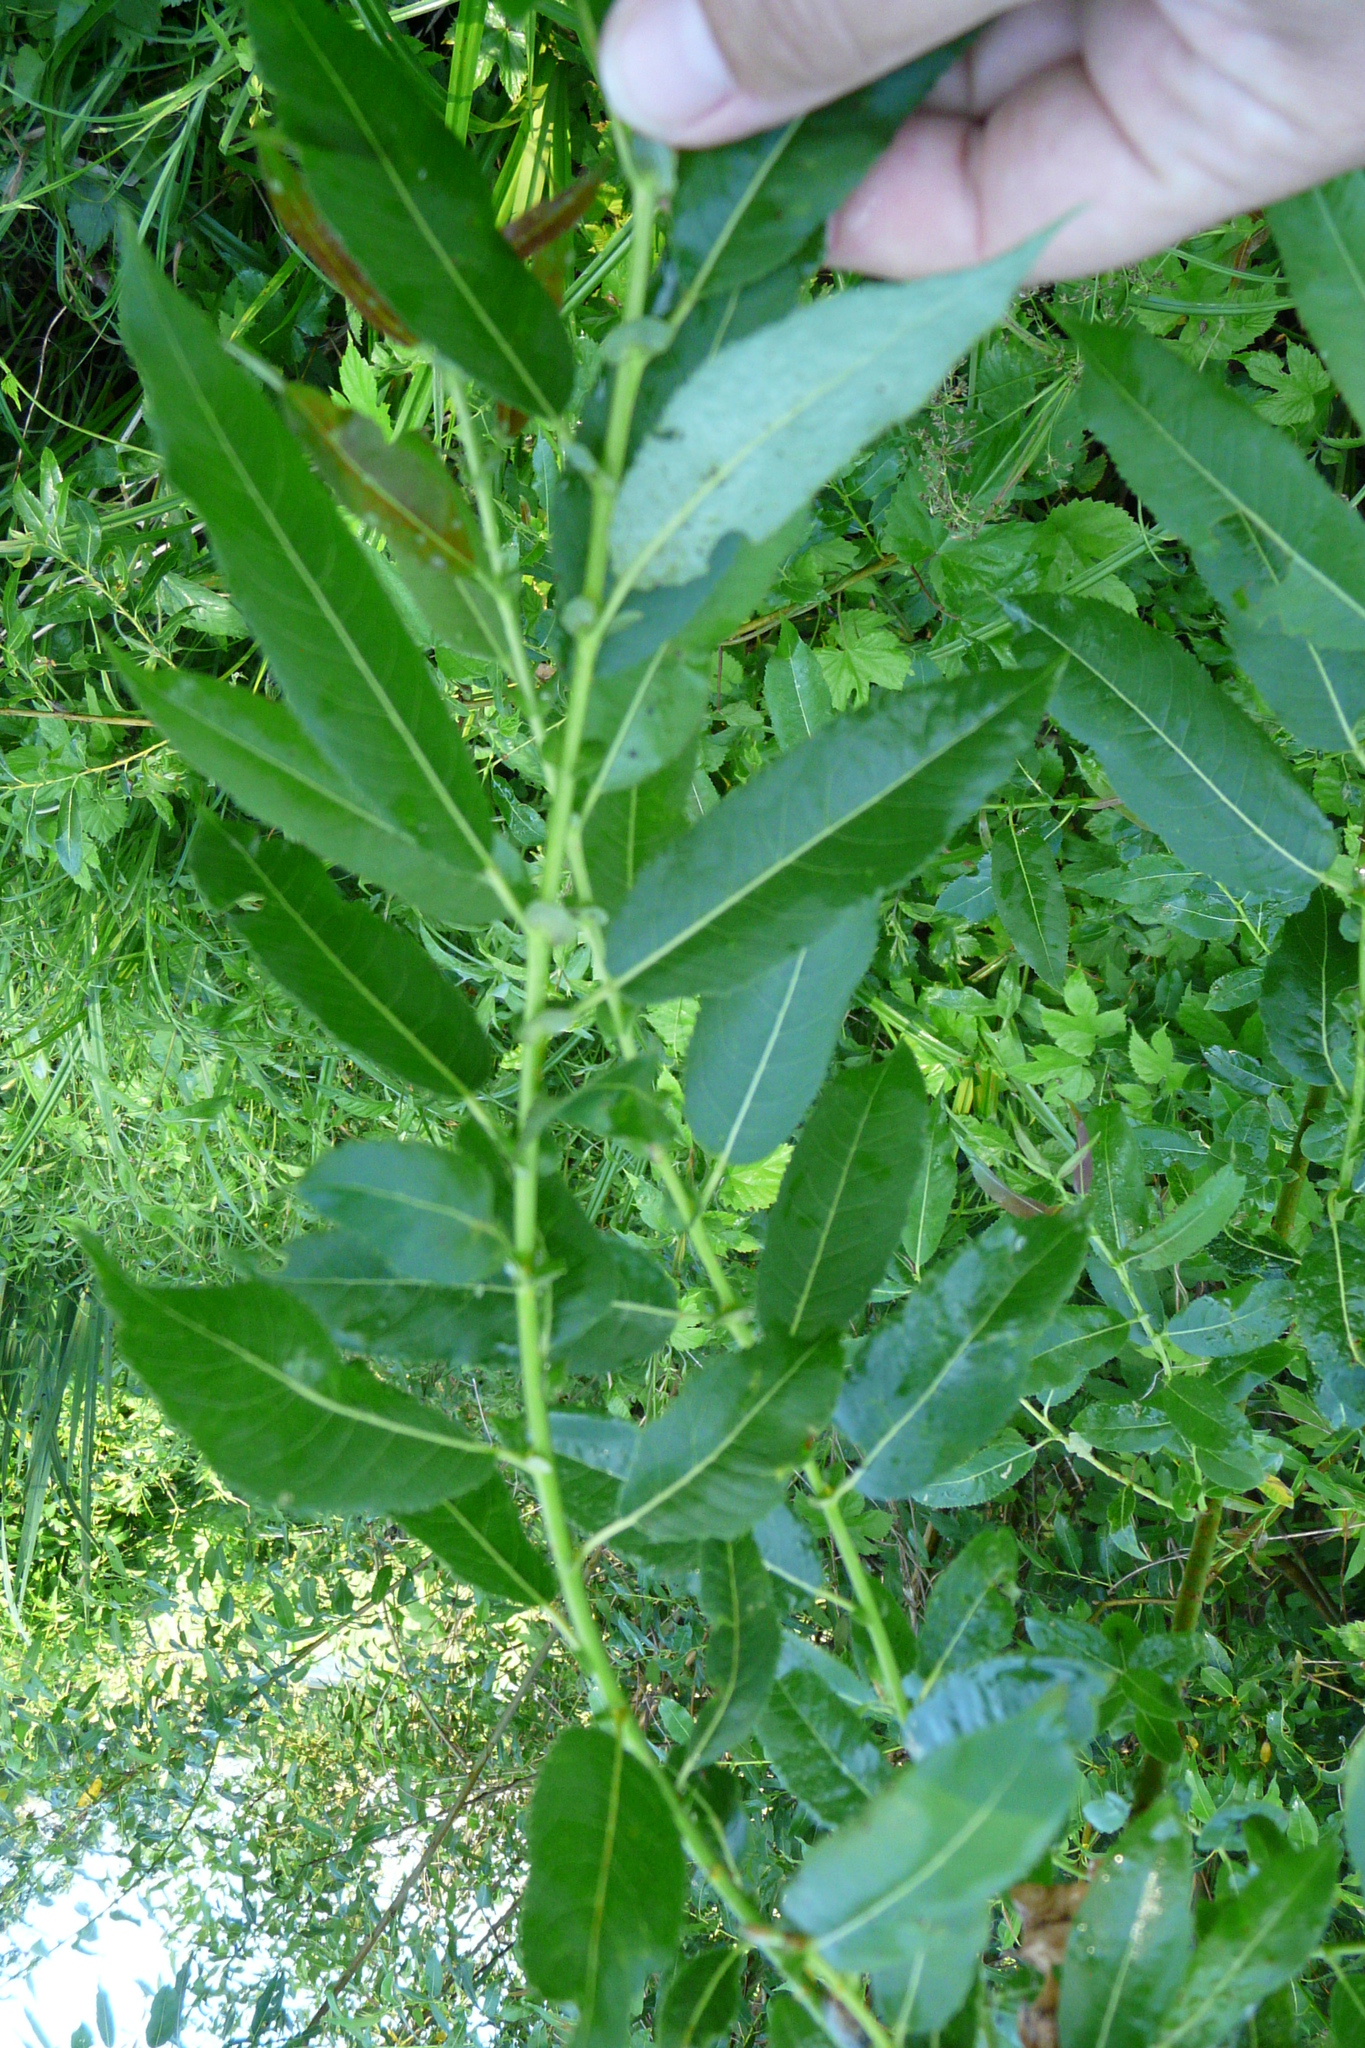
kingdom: Plantae
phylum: Tracheophyta
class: Magnoliopsida
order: Malpighiales
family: Salicaceae
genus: Salix
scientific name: Salix triandra
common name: Almond willow
